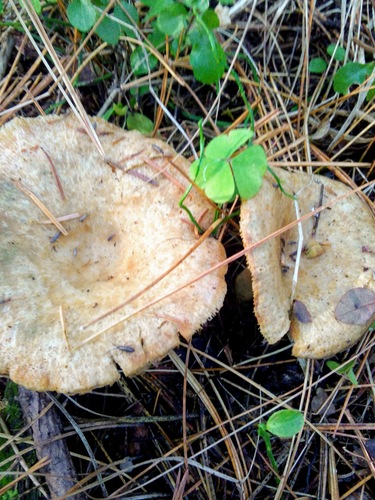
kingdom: Fungi
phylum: Basidiomycota
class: Agaricomycetes
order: Russulales
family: Russulaceae
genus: Lactarius
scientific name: Lactarius deliciosus
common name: Saffron milk-cap
